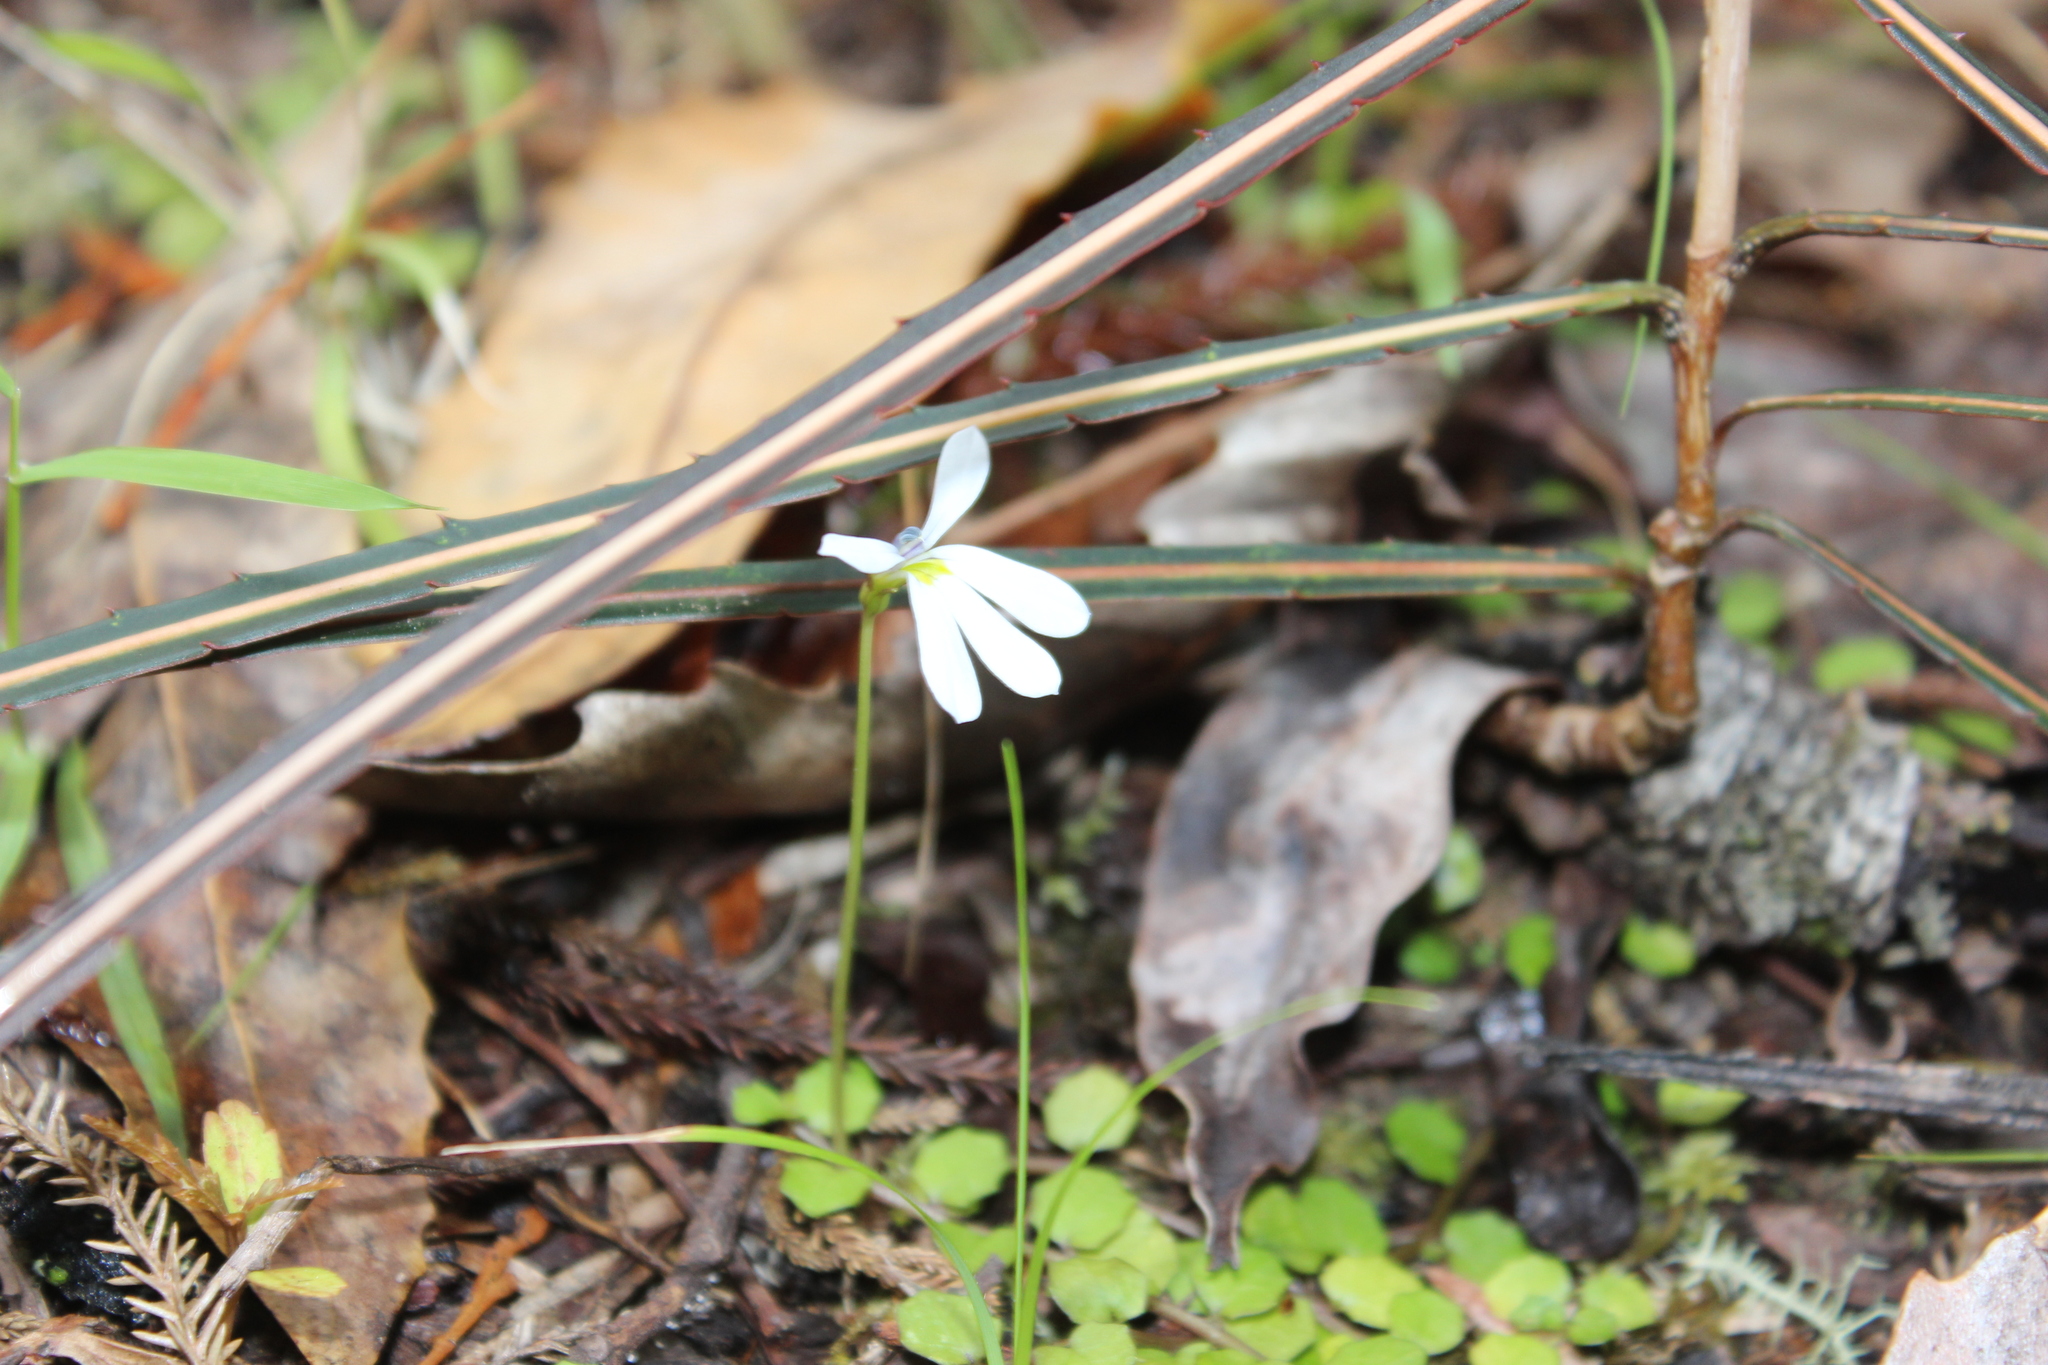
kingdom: Plantae
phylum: Tracheophyta
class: Magnoliopsida
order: Asterales
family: Campanulaceae
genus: Lobelia
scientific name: Lobelia angulata
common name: Lawn lobelia
